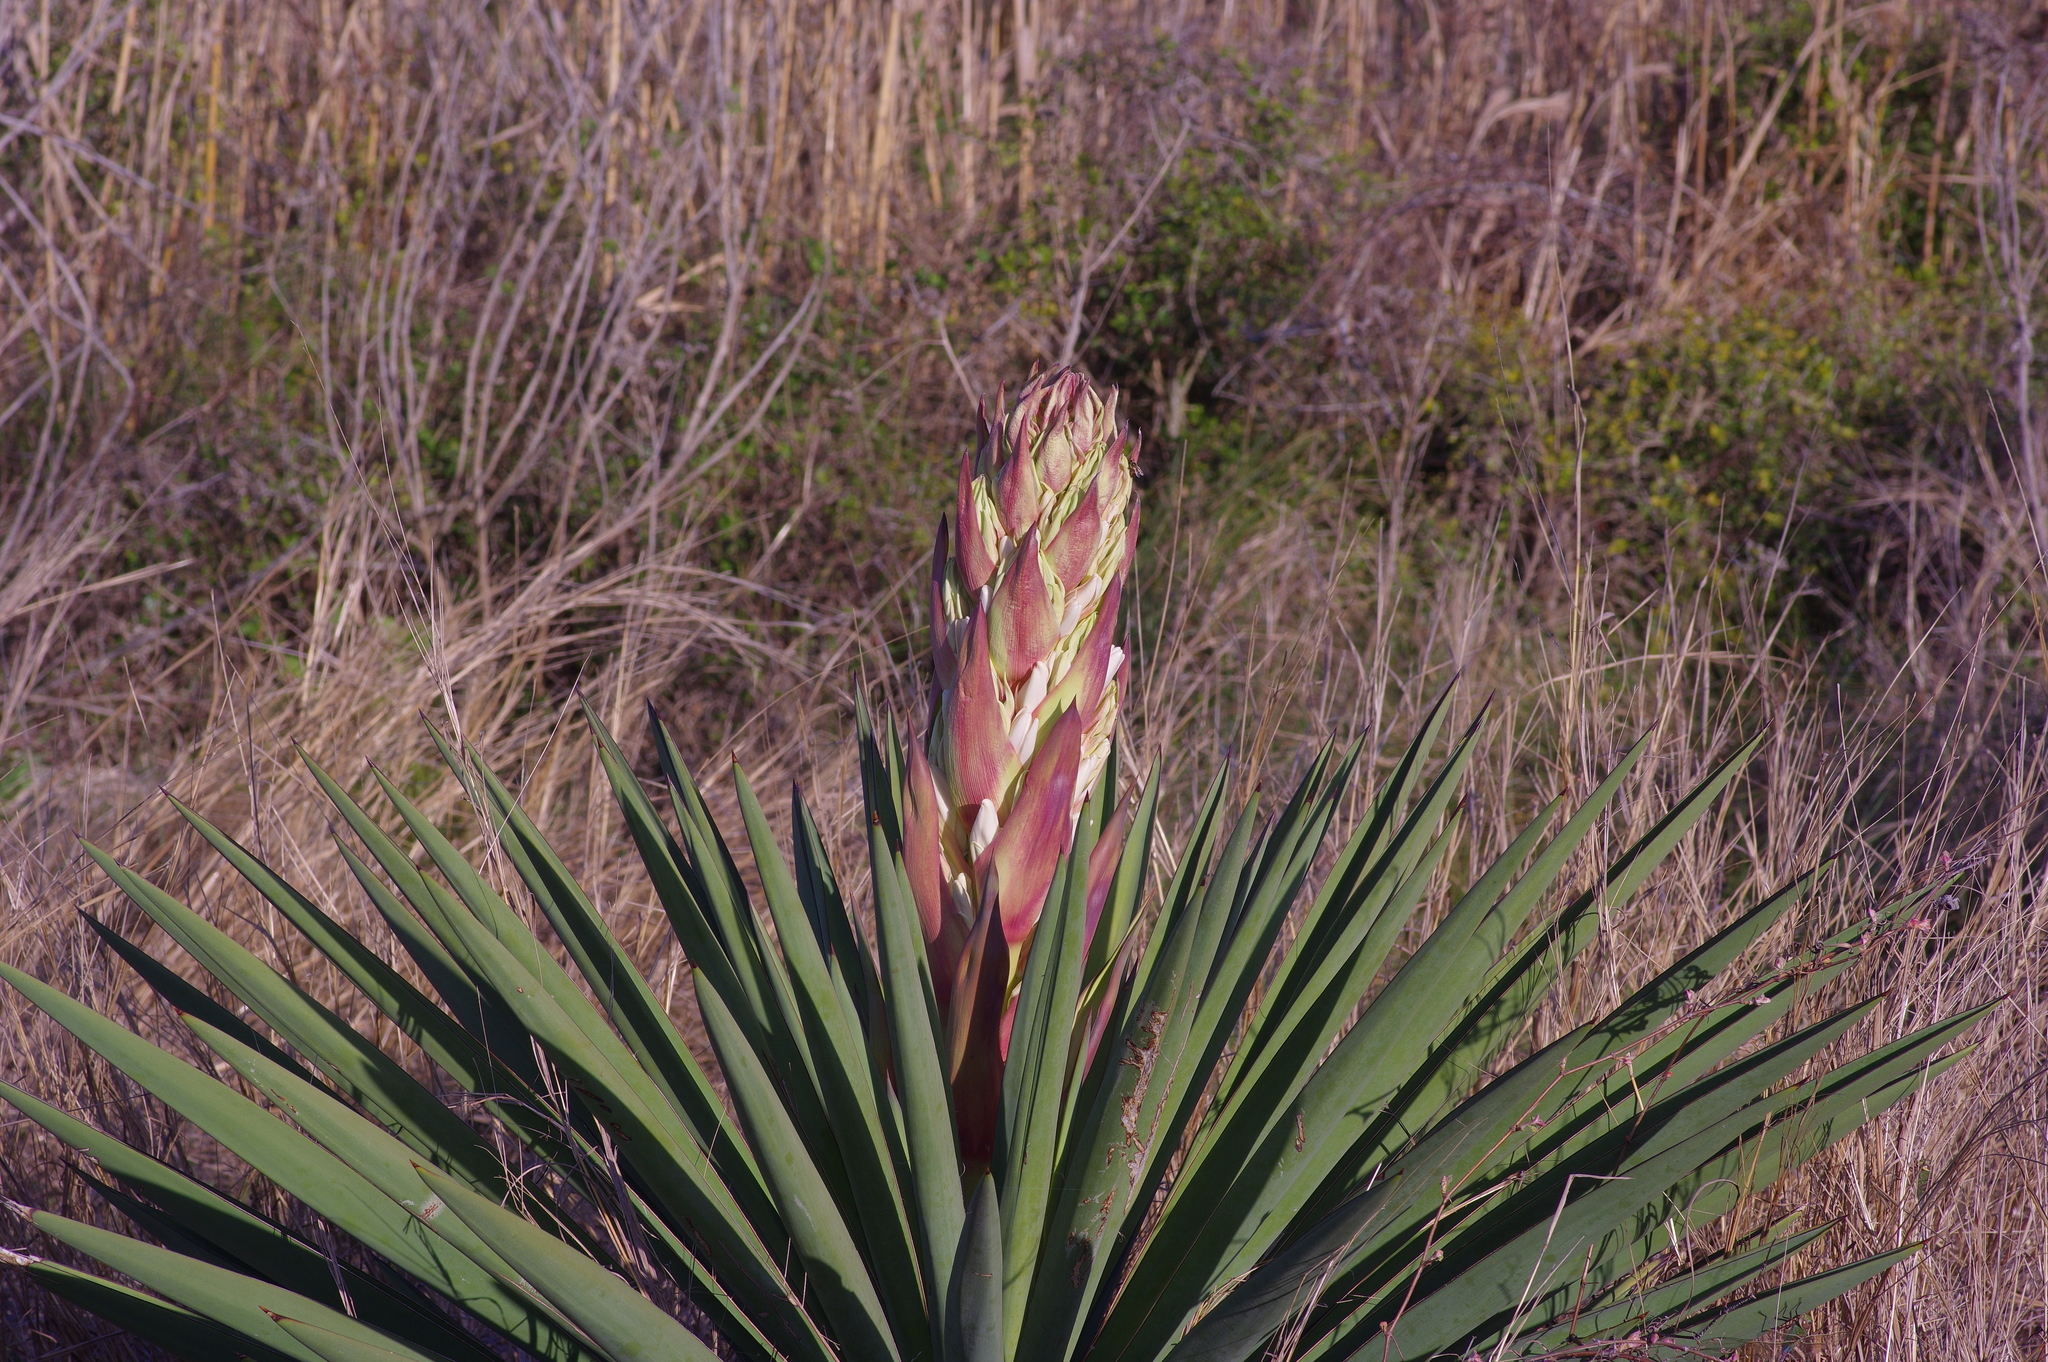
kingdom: Plantae
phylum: Tracheophyta
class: Liliopsida
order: Asparagales
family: Asparagaceae
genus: Yucca
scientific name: Yucca treculiana
